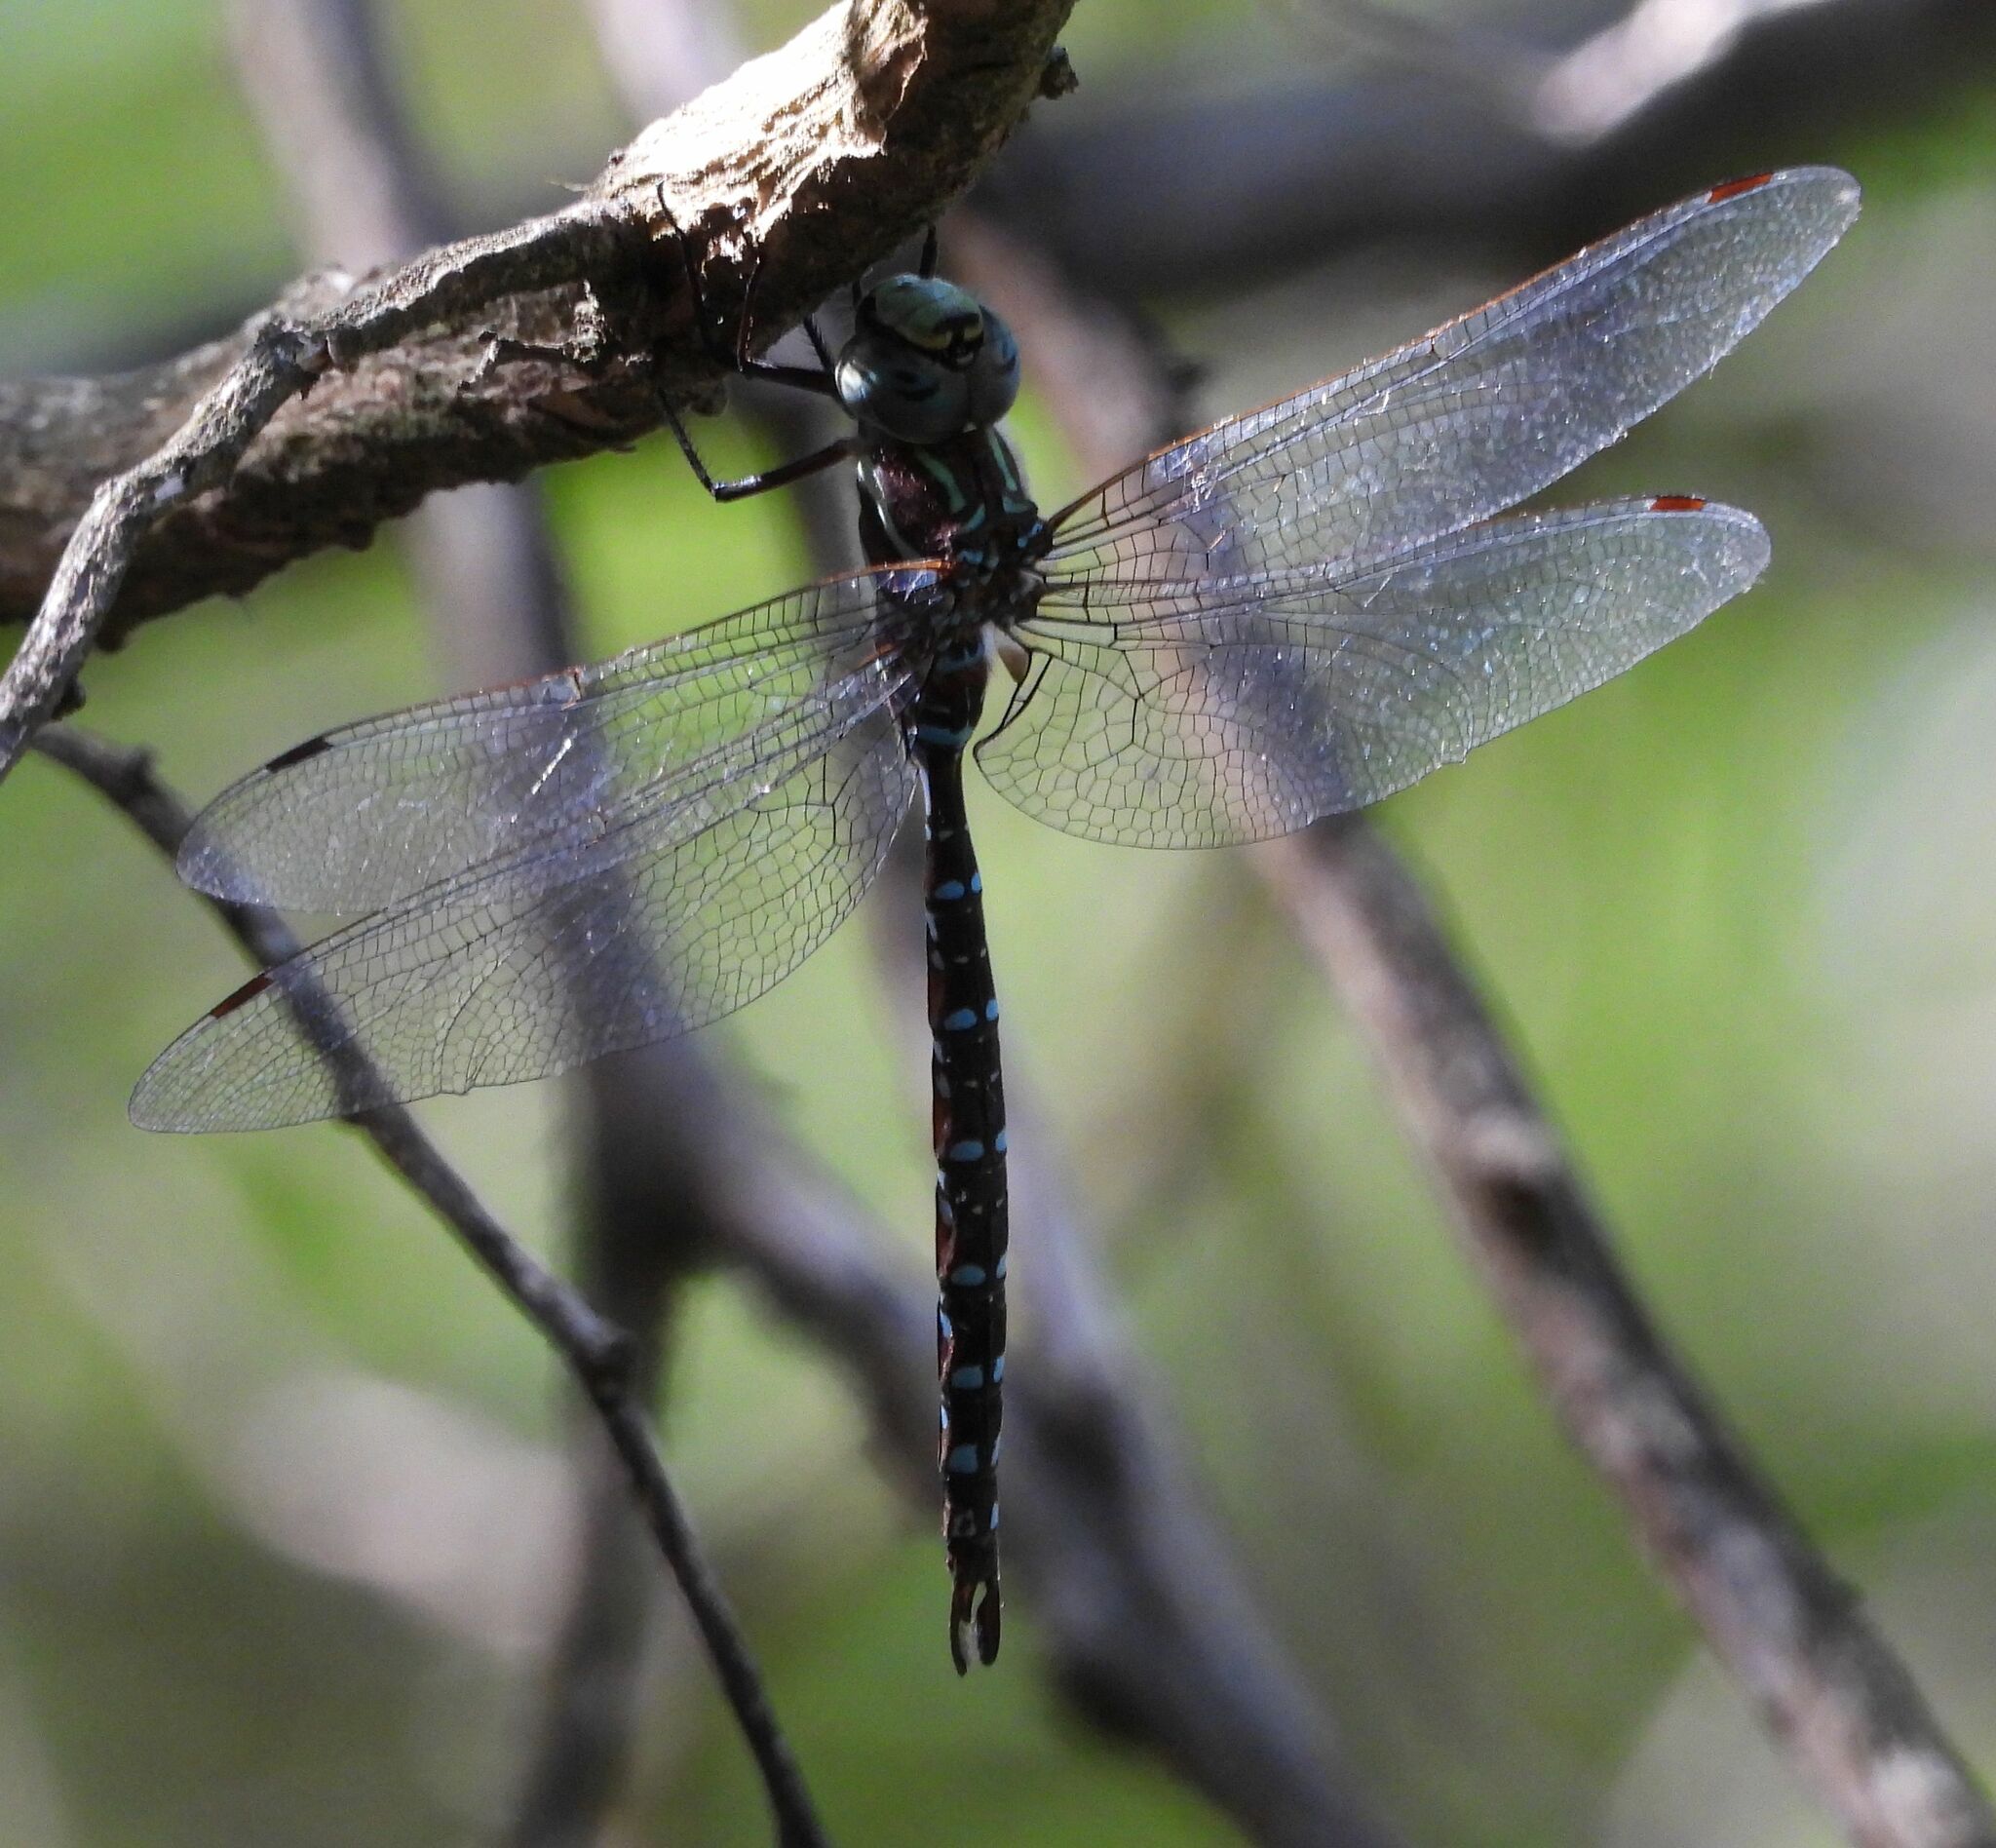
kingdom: Animalia
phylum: Arthropoda
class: Insecta
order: Odonata
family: Aeshnidae
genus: Aeshna
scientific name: Aeshna tuberculifera
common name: Aeschne à tubercules
